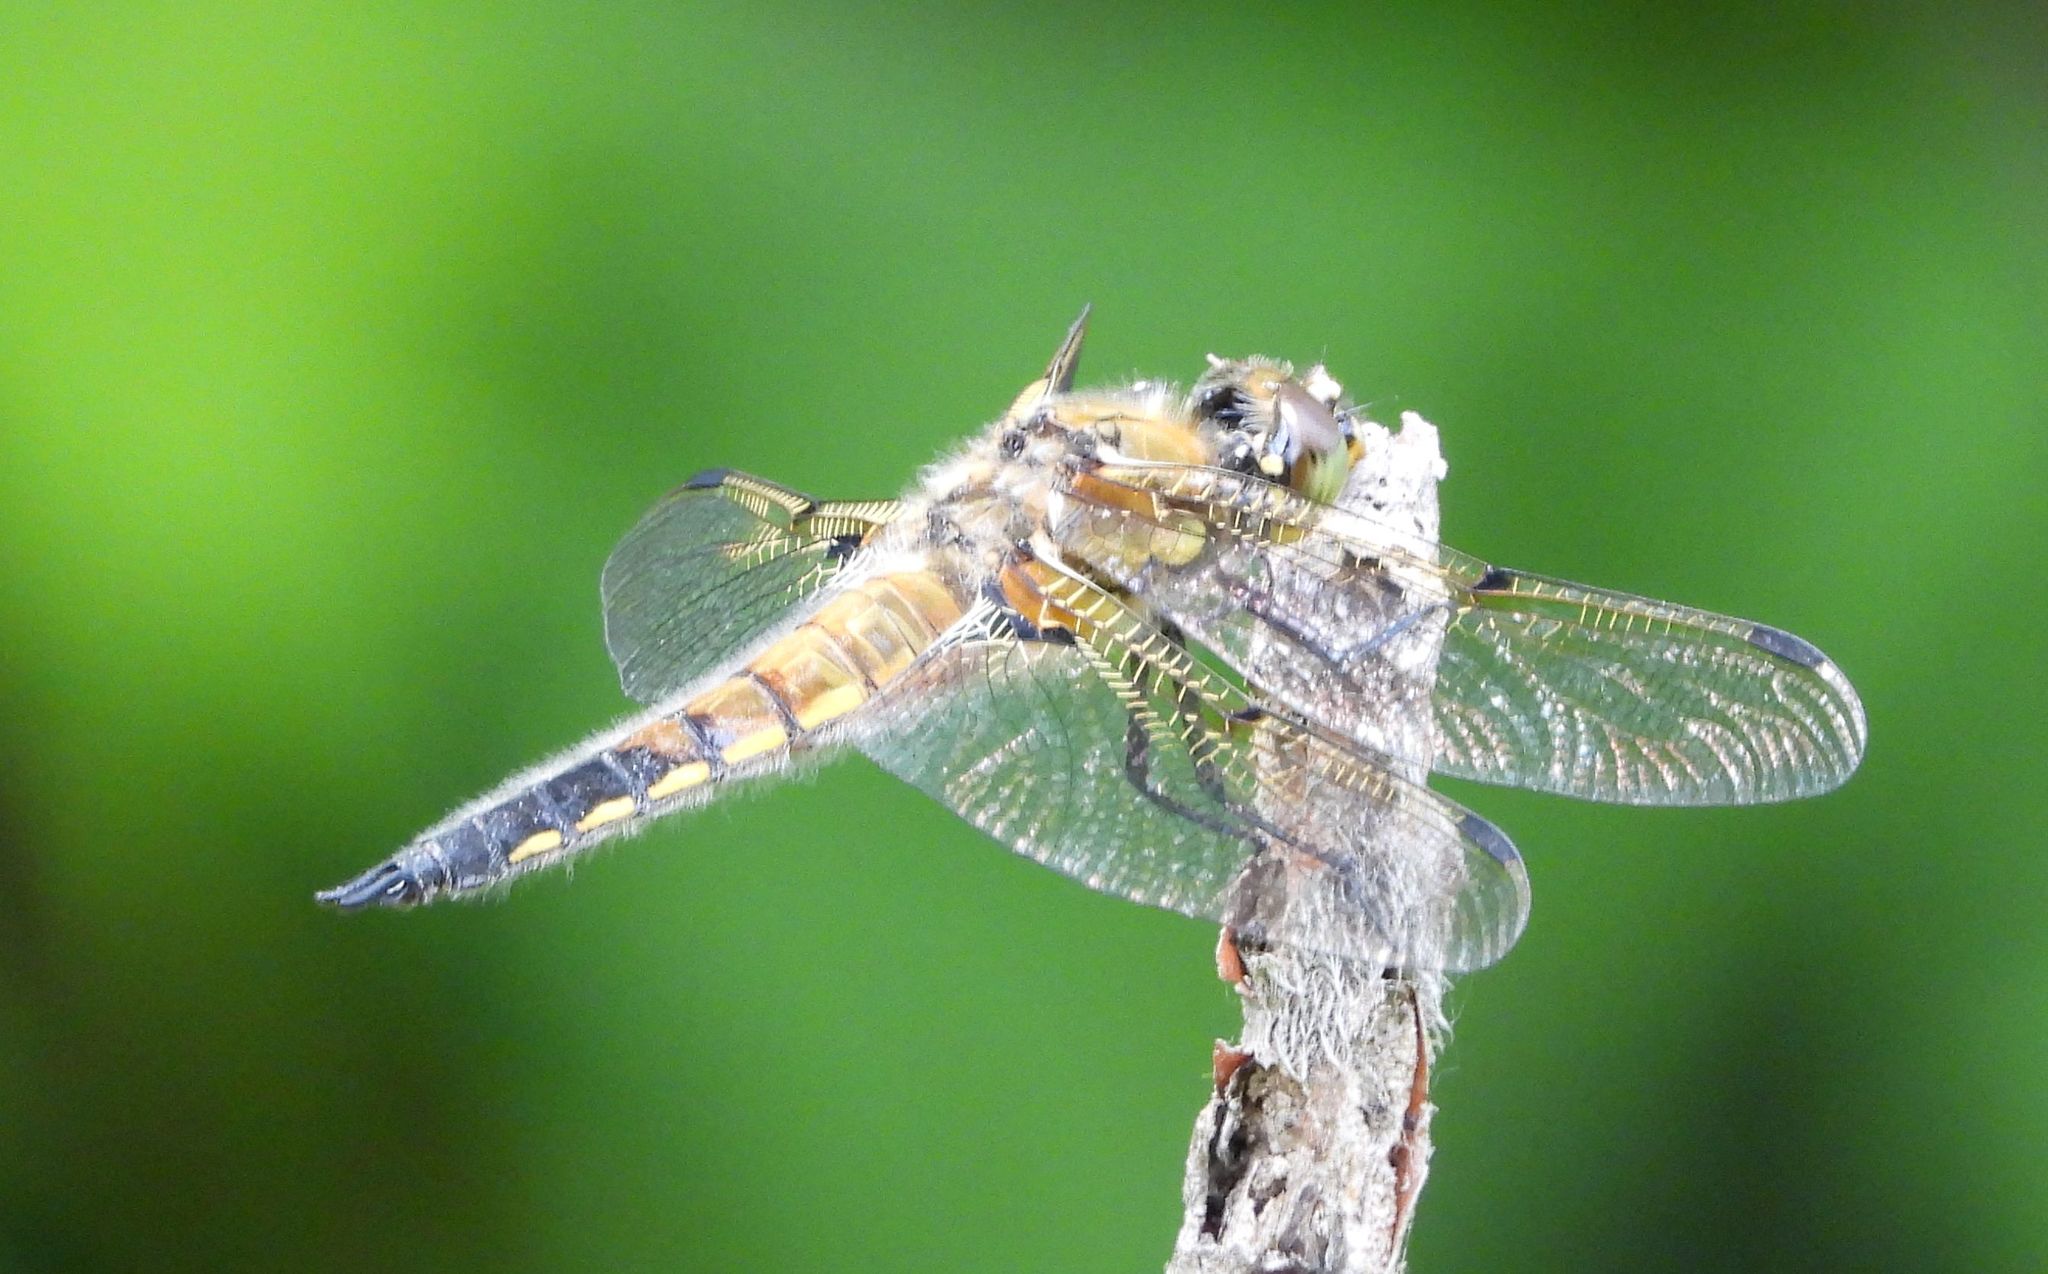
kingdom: Animalia
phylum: Arthropoda
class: Insecta
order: Odonata
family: Libellulidae
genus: Libellula
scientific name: Libellula quadrimaculata
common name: Four-spotted chaser
